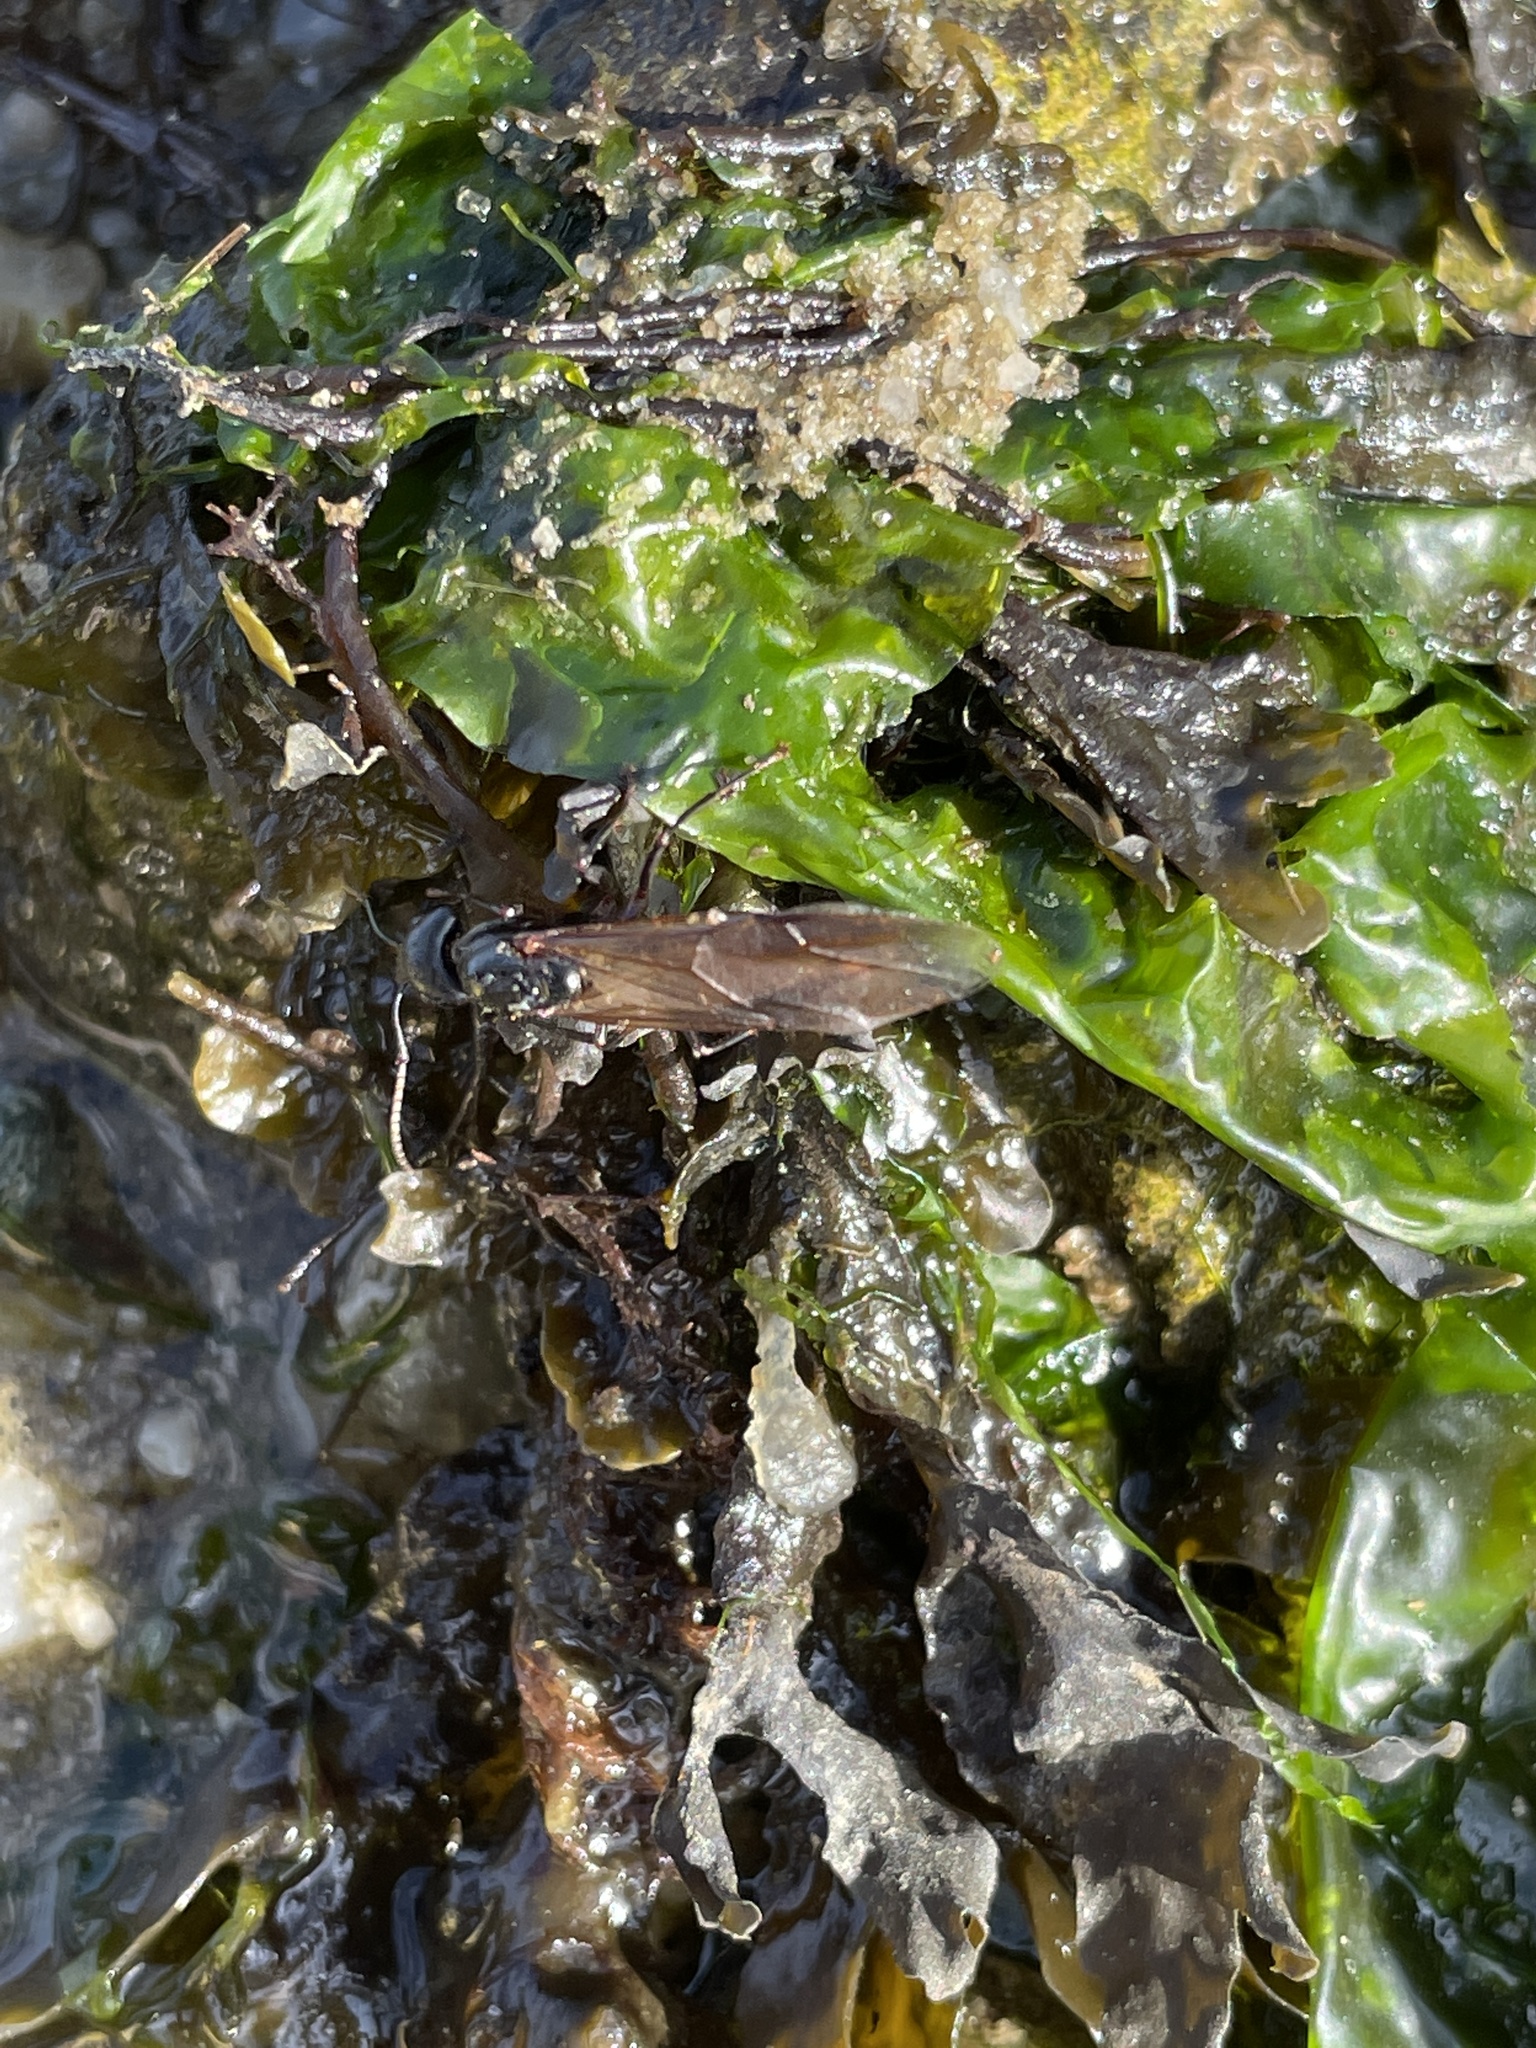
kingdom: Animalia
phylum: Arthropoda
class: Insecta
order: Hymenoptera
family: Formicidae
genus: Camponotus
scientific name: Camponotus pennsylvanicus
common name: Black carpenter ant
